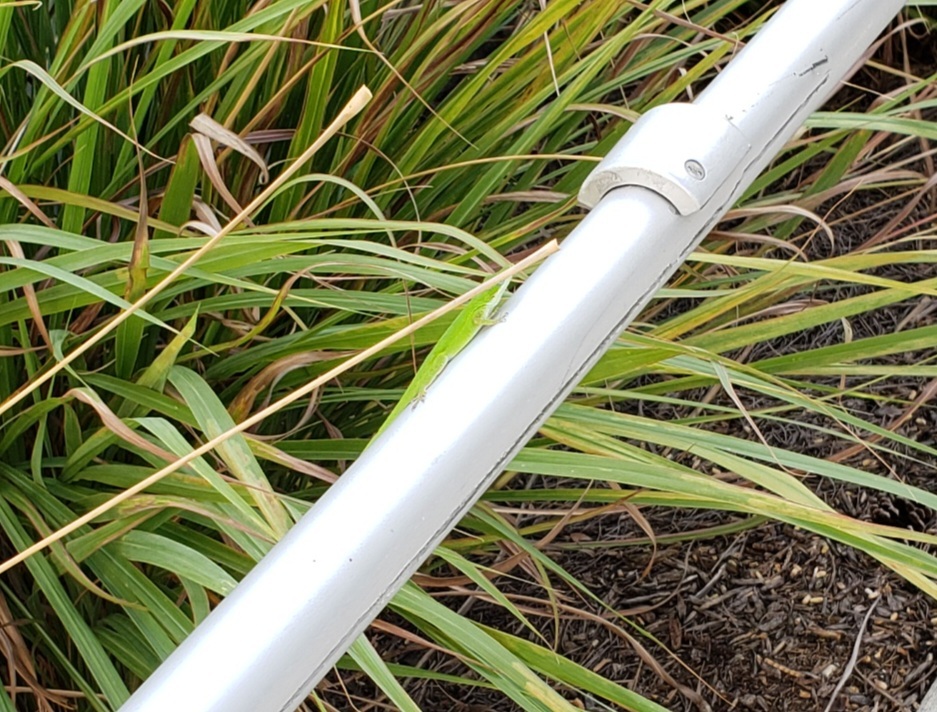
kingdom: Animalia
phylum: Chordata
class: Squamata
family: Dactyloidae
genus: Anolis
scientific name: Anolis carolinensis
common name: Green anole
